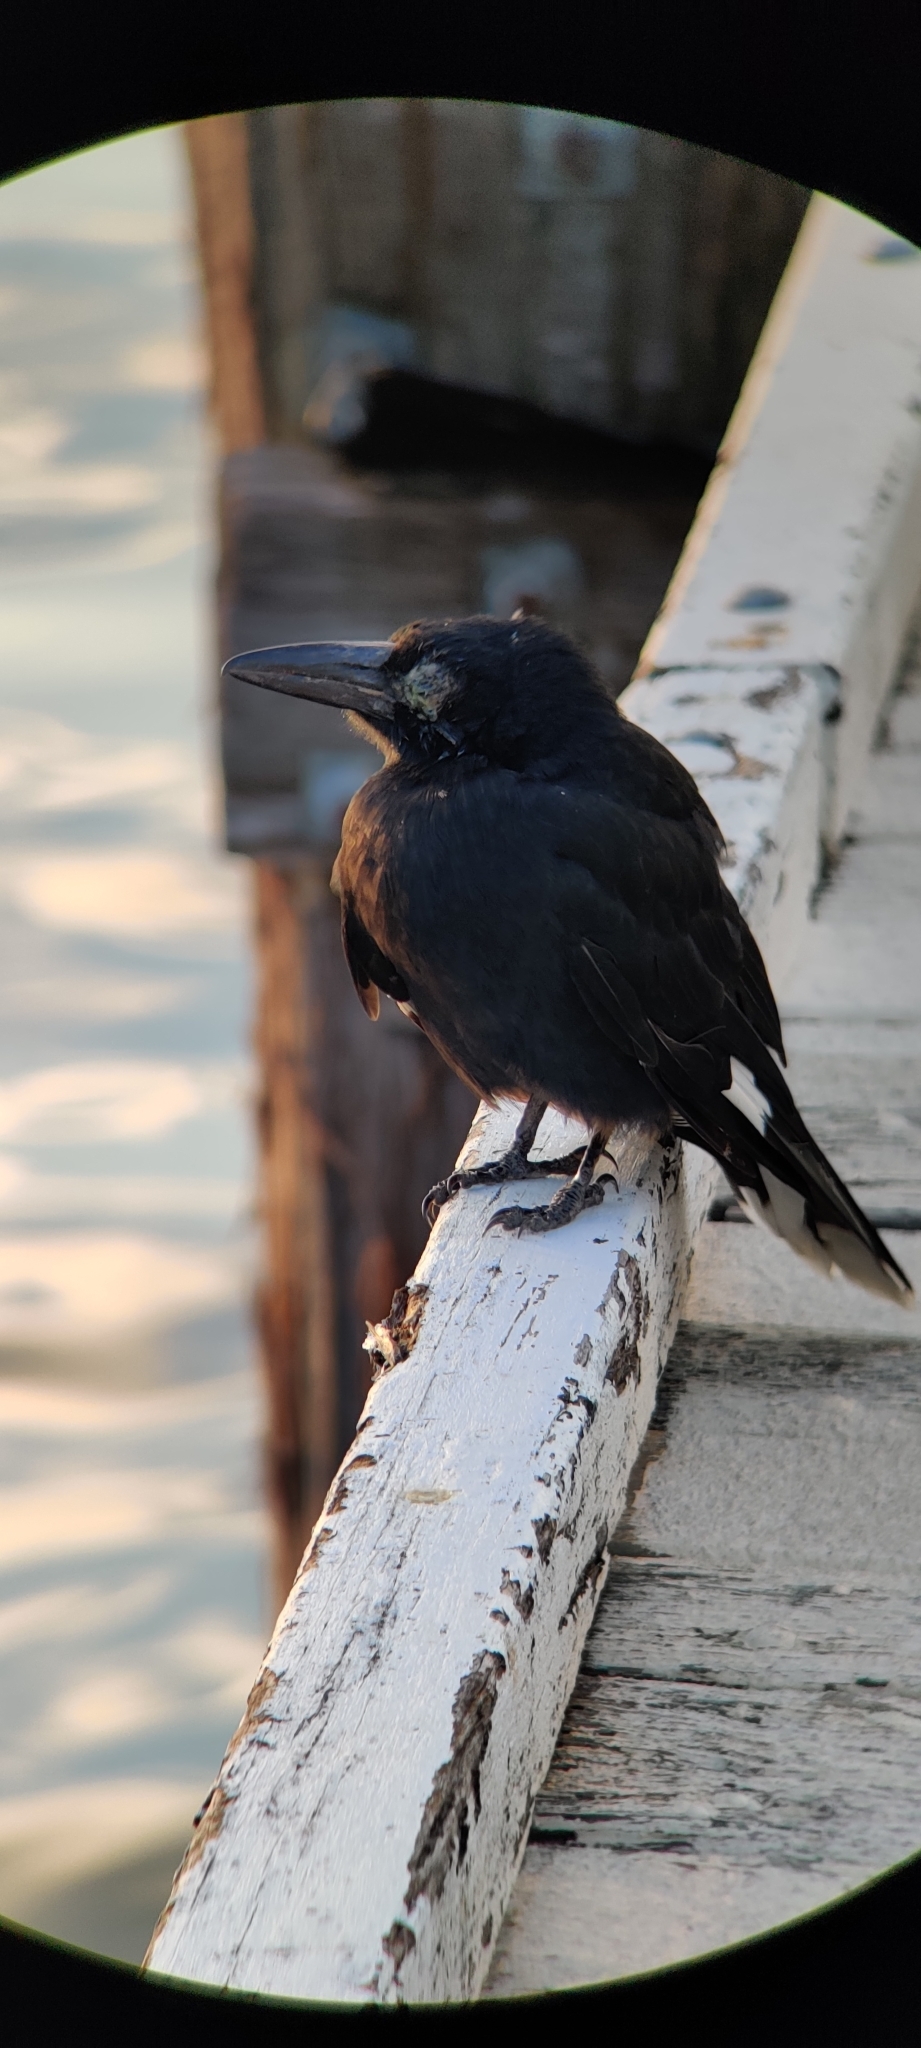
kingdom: Animalia
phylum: Chordata
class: Aves
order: Passeriformes
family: Cracticidae
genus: Strepera
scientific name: Strepera graculina
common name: Pied currawong
